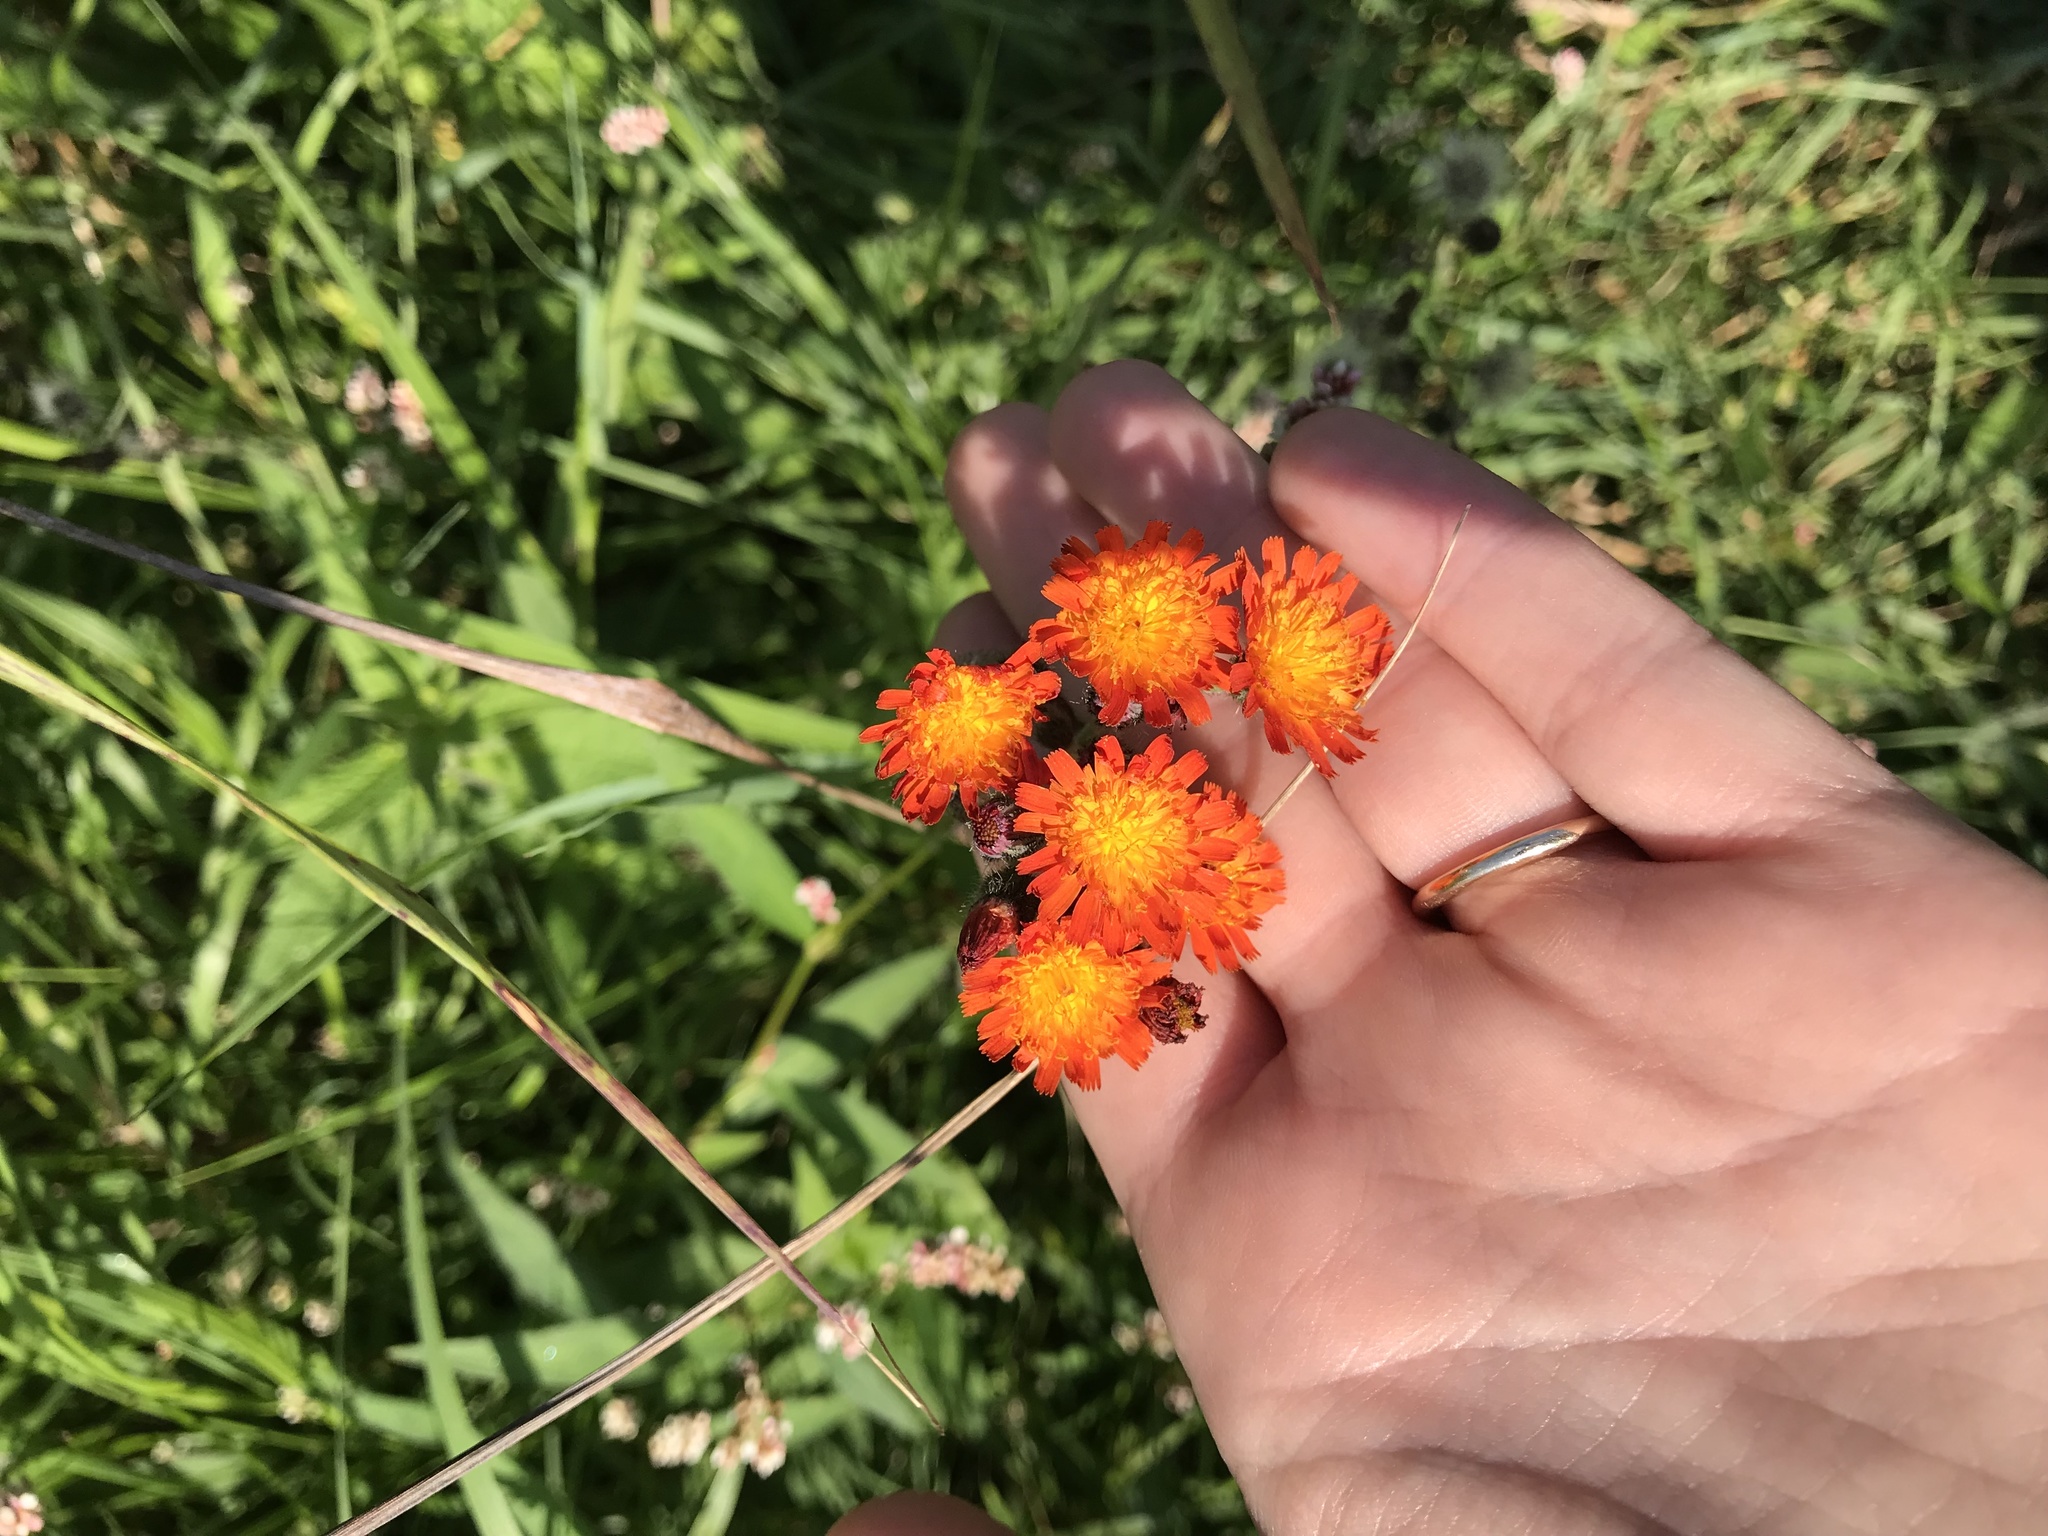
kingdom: Plantae
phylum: Tracheophyta
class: Magnoliopsida
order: Asterales
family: Asteraceae
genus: Pilosella
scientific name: Pilosella aurantiaca
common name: Fox-and-cubs
